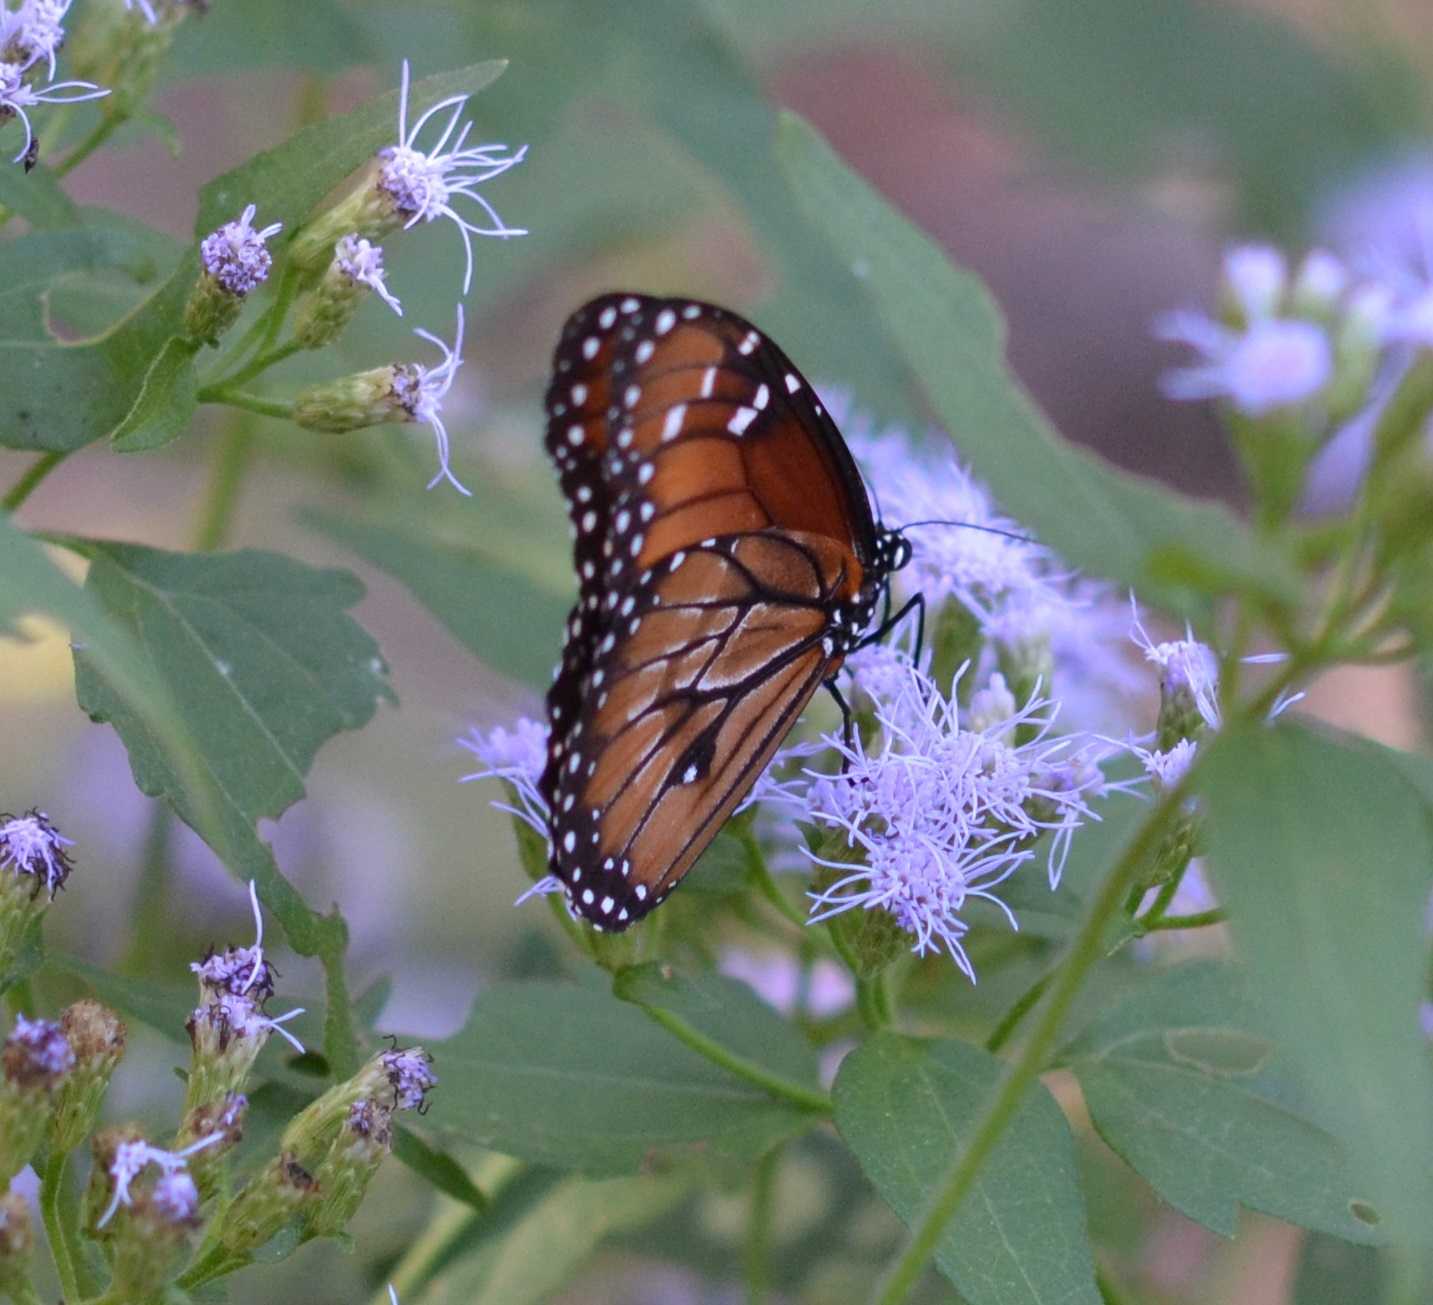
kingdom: Animalia
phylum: Arthropoda
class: Insecta
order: Lepidoptera
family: Nymphalidae
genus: Danaus
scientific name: Danaus eresimus
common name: Soldier
